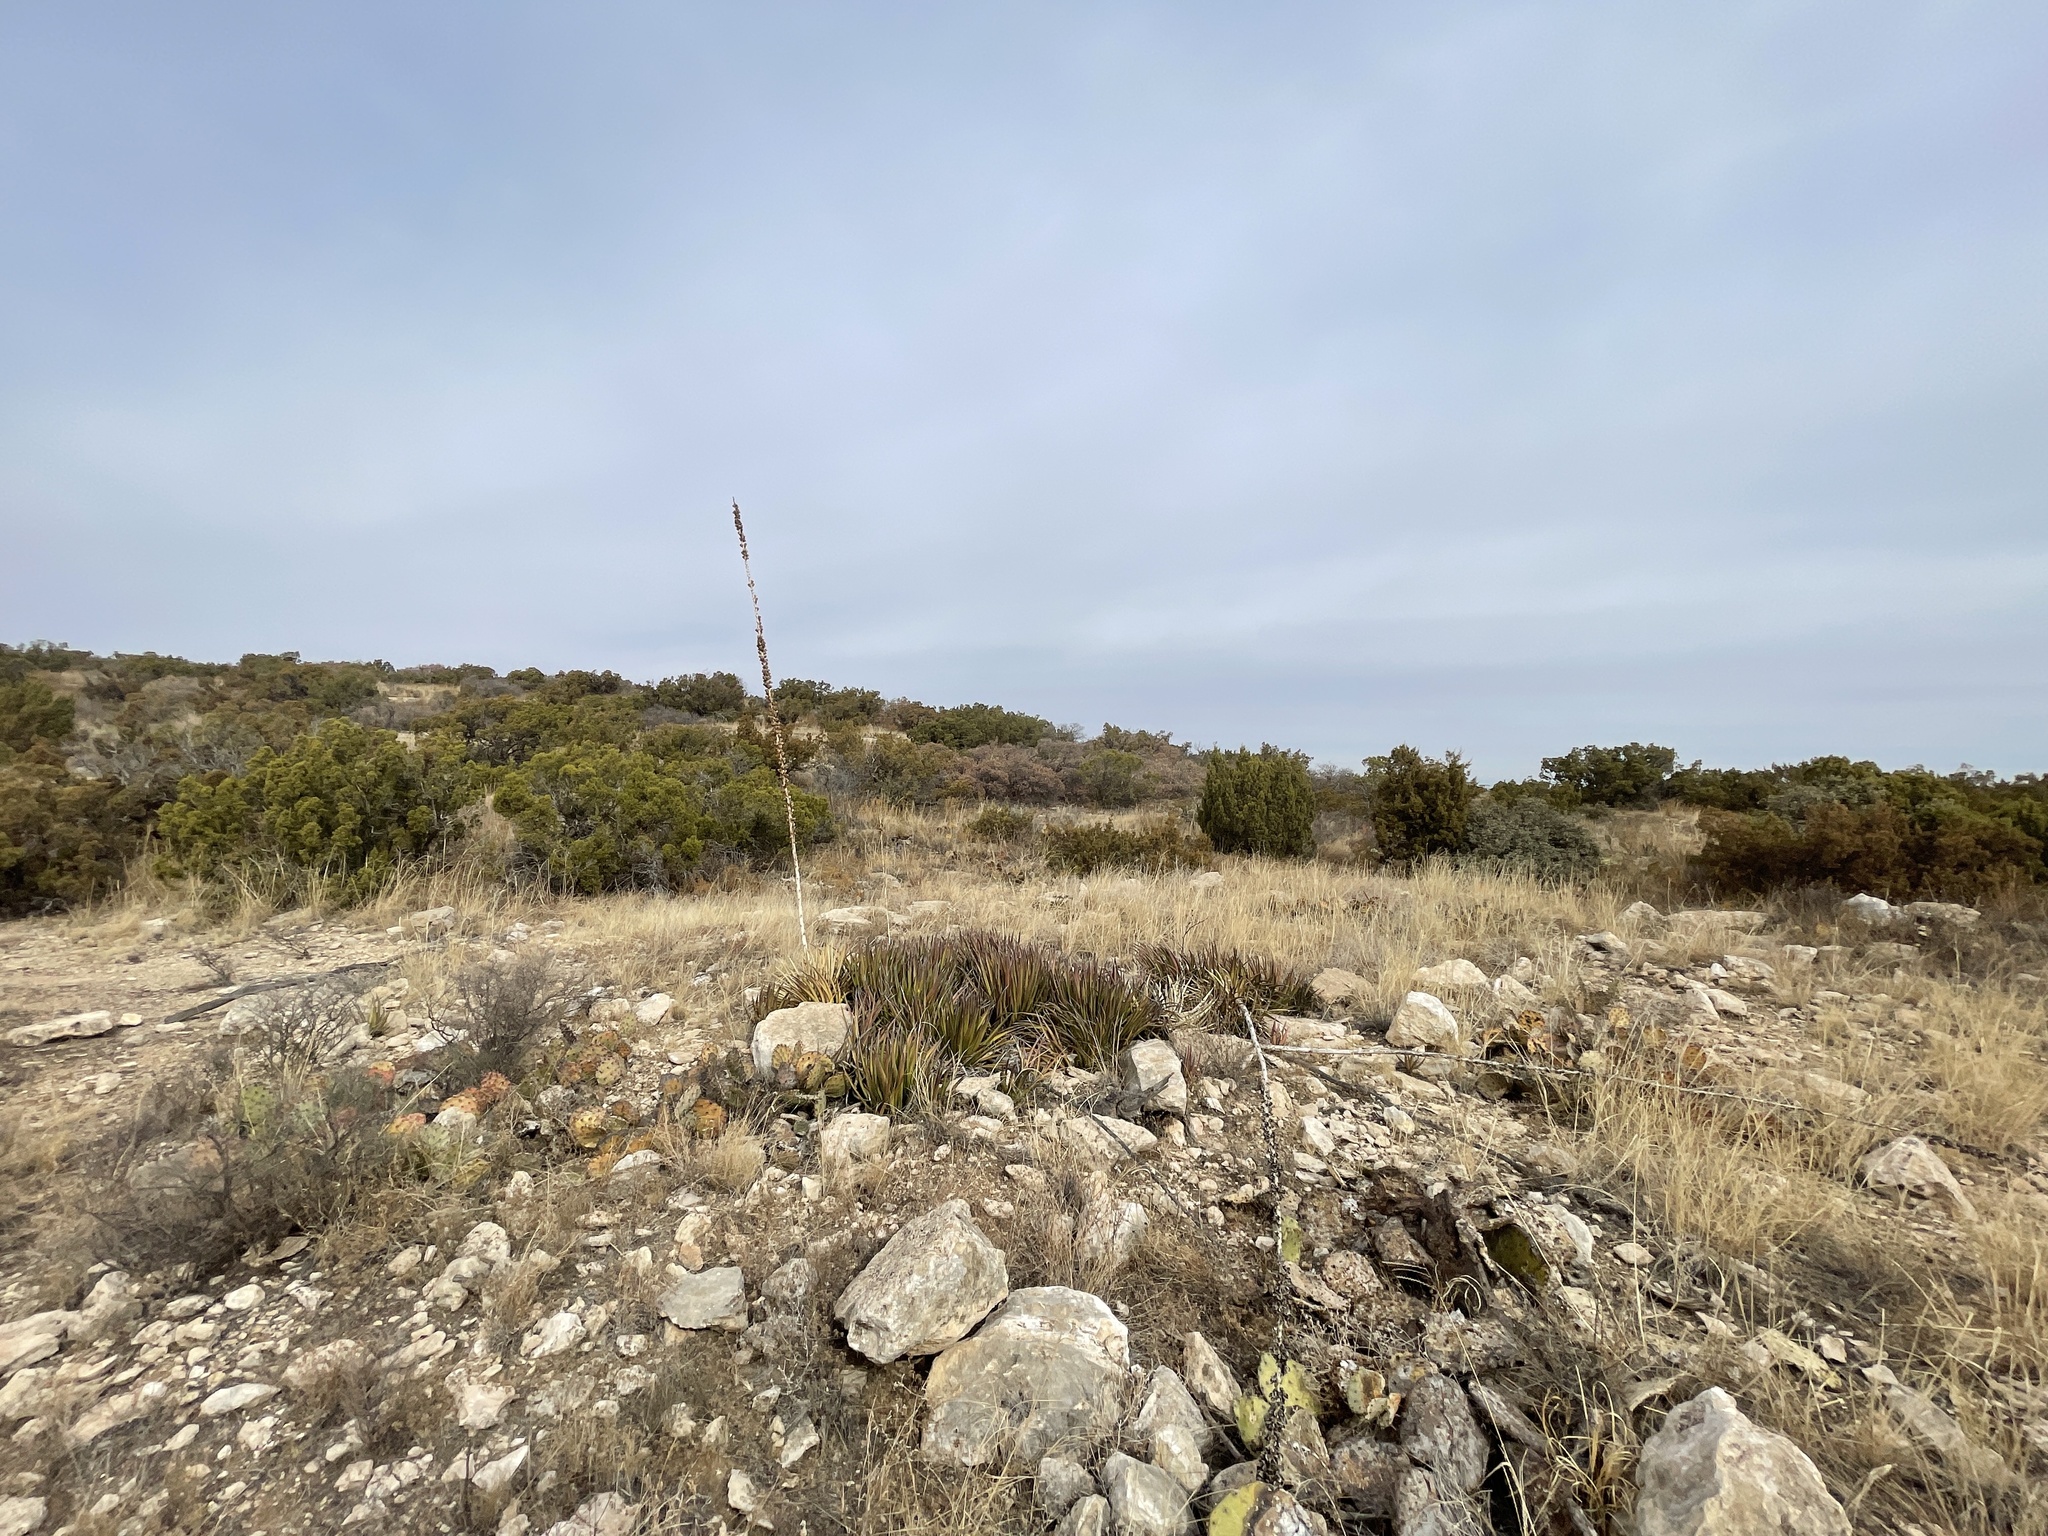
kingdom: Plantae
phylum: Tracheophyta
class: Liliopsida
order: Asparagales
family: Asparagaceae
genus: Agave
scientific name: Agave lechuguilla
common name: Lecheguilla agave
